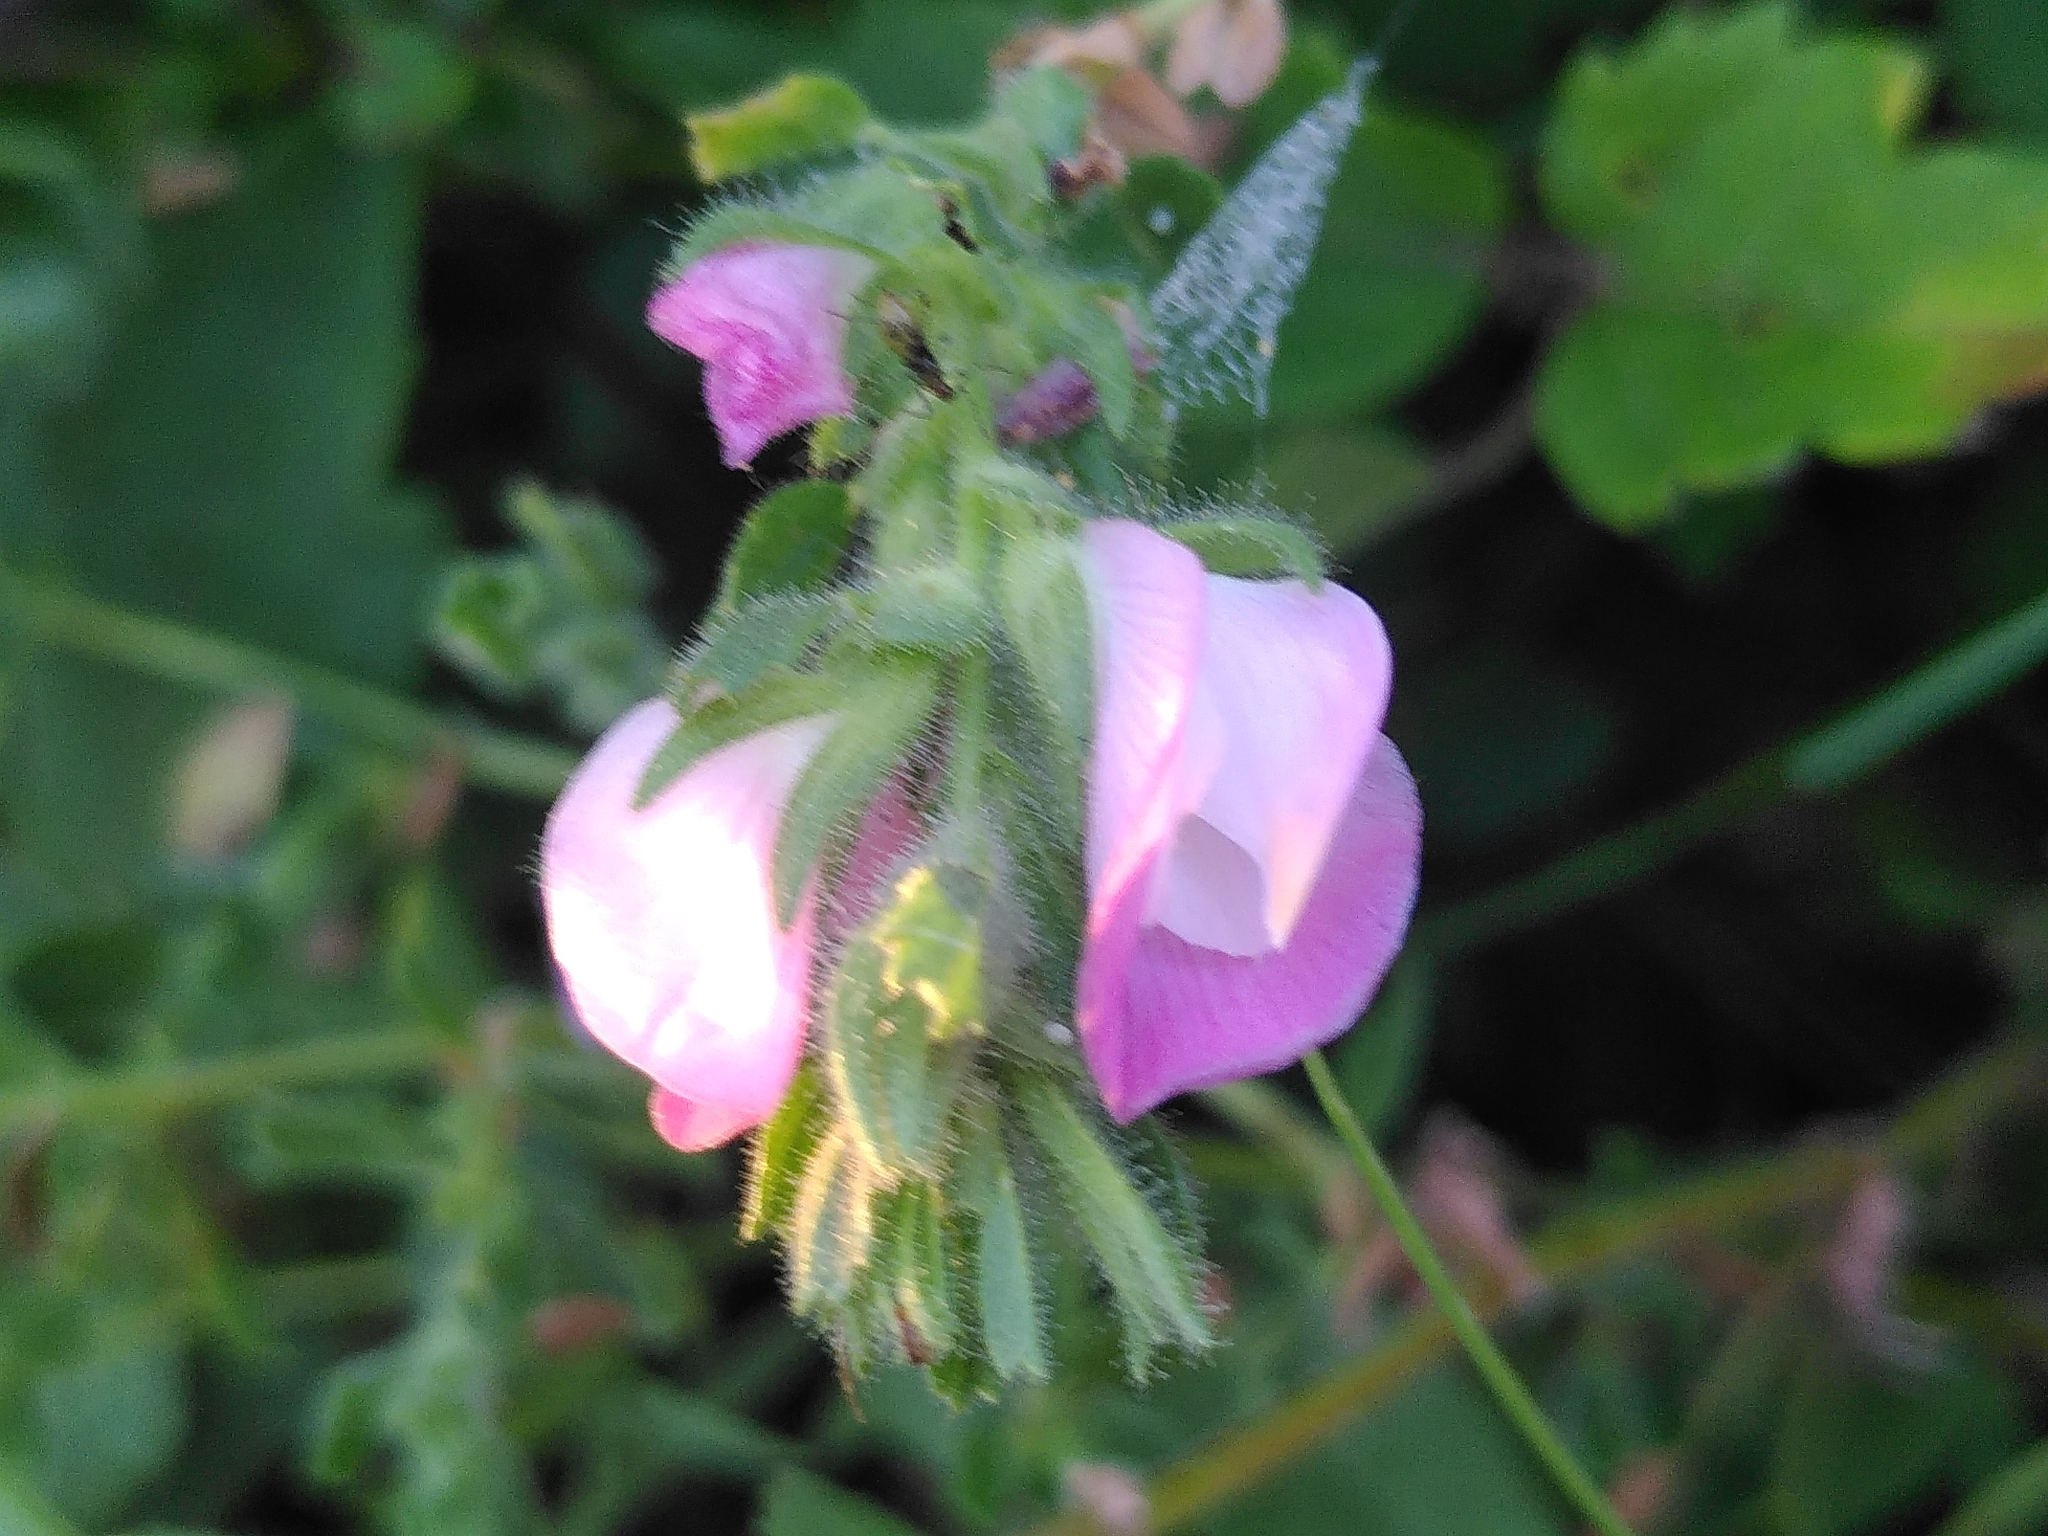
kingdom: Plantae
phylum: Tracheophyta
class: Magnoliopsida
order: Fabales
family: Fabaceae
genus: Ononis
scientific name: Ononis spinosa
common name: Spiny restharrow
